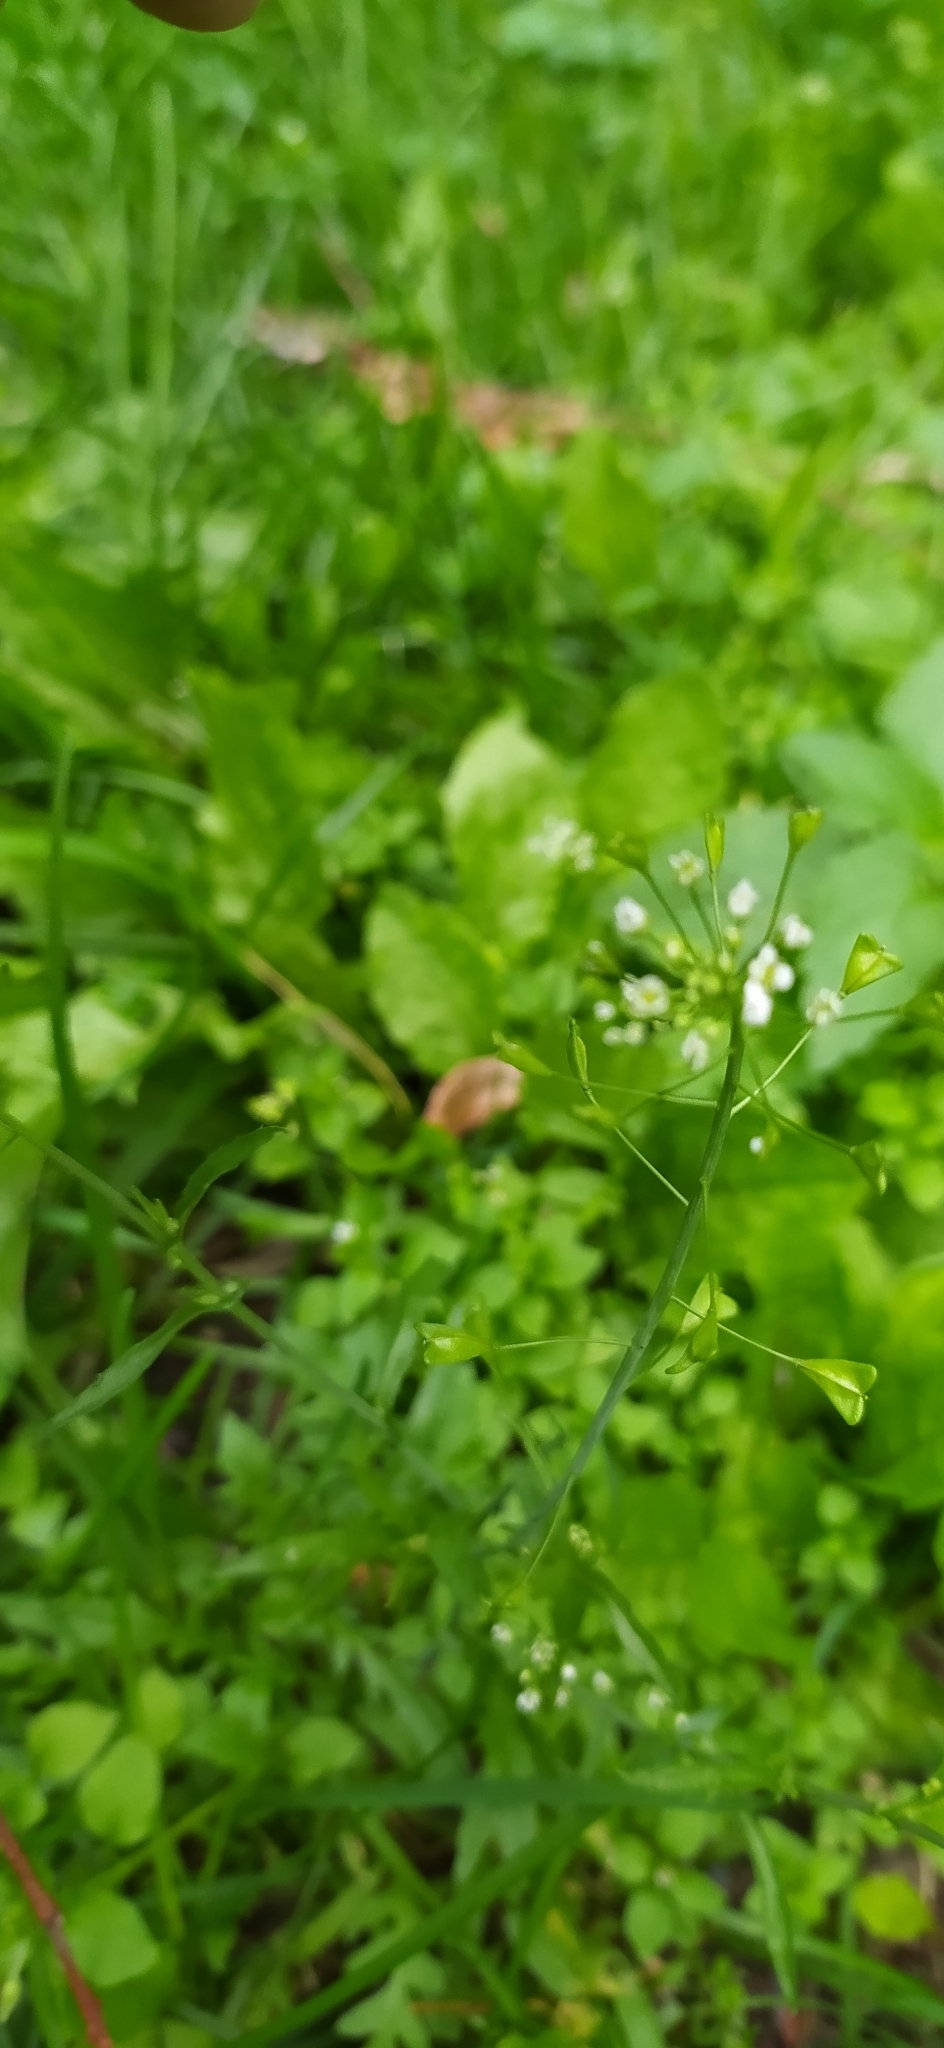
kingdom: Plantae
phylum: Tracheophyta
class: Magnoliopsida
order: Brassicales
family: Brassicaceae
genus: Capsella
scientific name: Capsella bursa-pastoris
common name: Shepherd's purse
